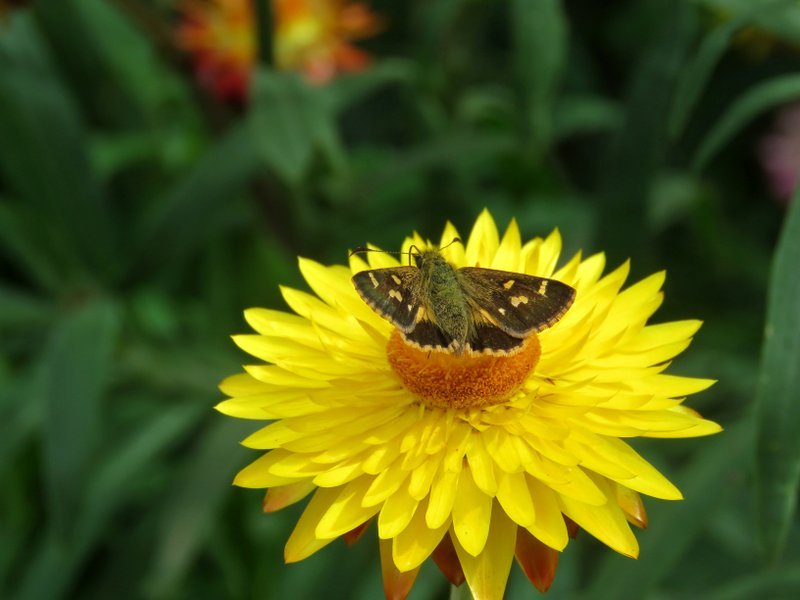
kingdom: Animalia
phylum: Arthropoda
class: Insecta
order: Lepidoptera
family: Hesperiidae
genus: Dispar
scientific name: Dispar compacta
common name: Barred skipper
